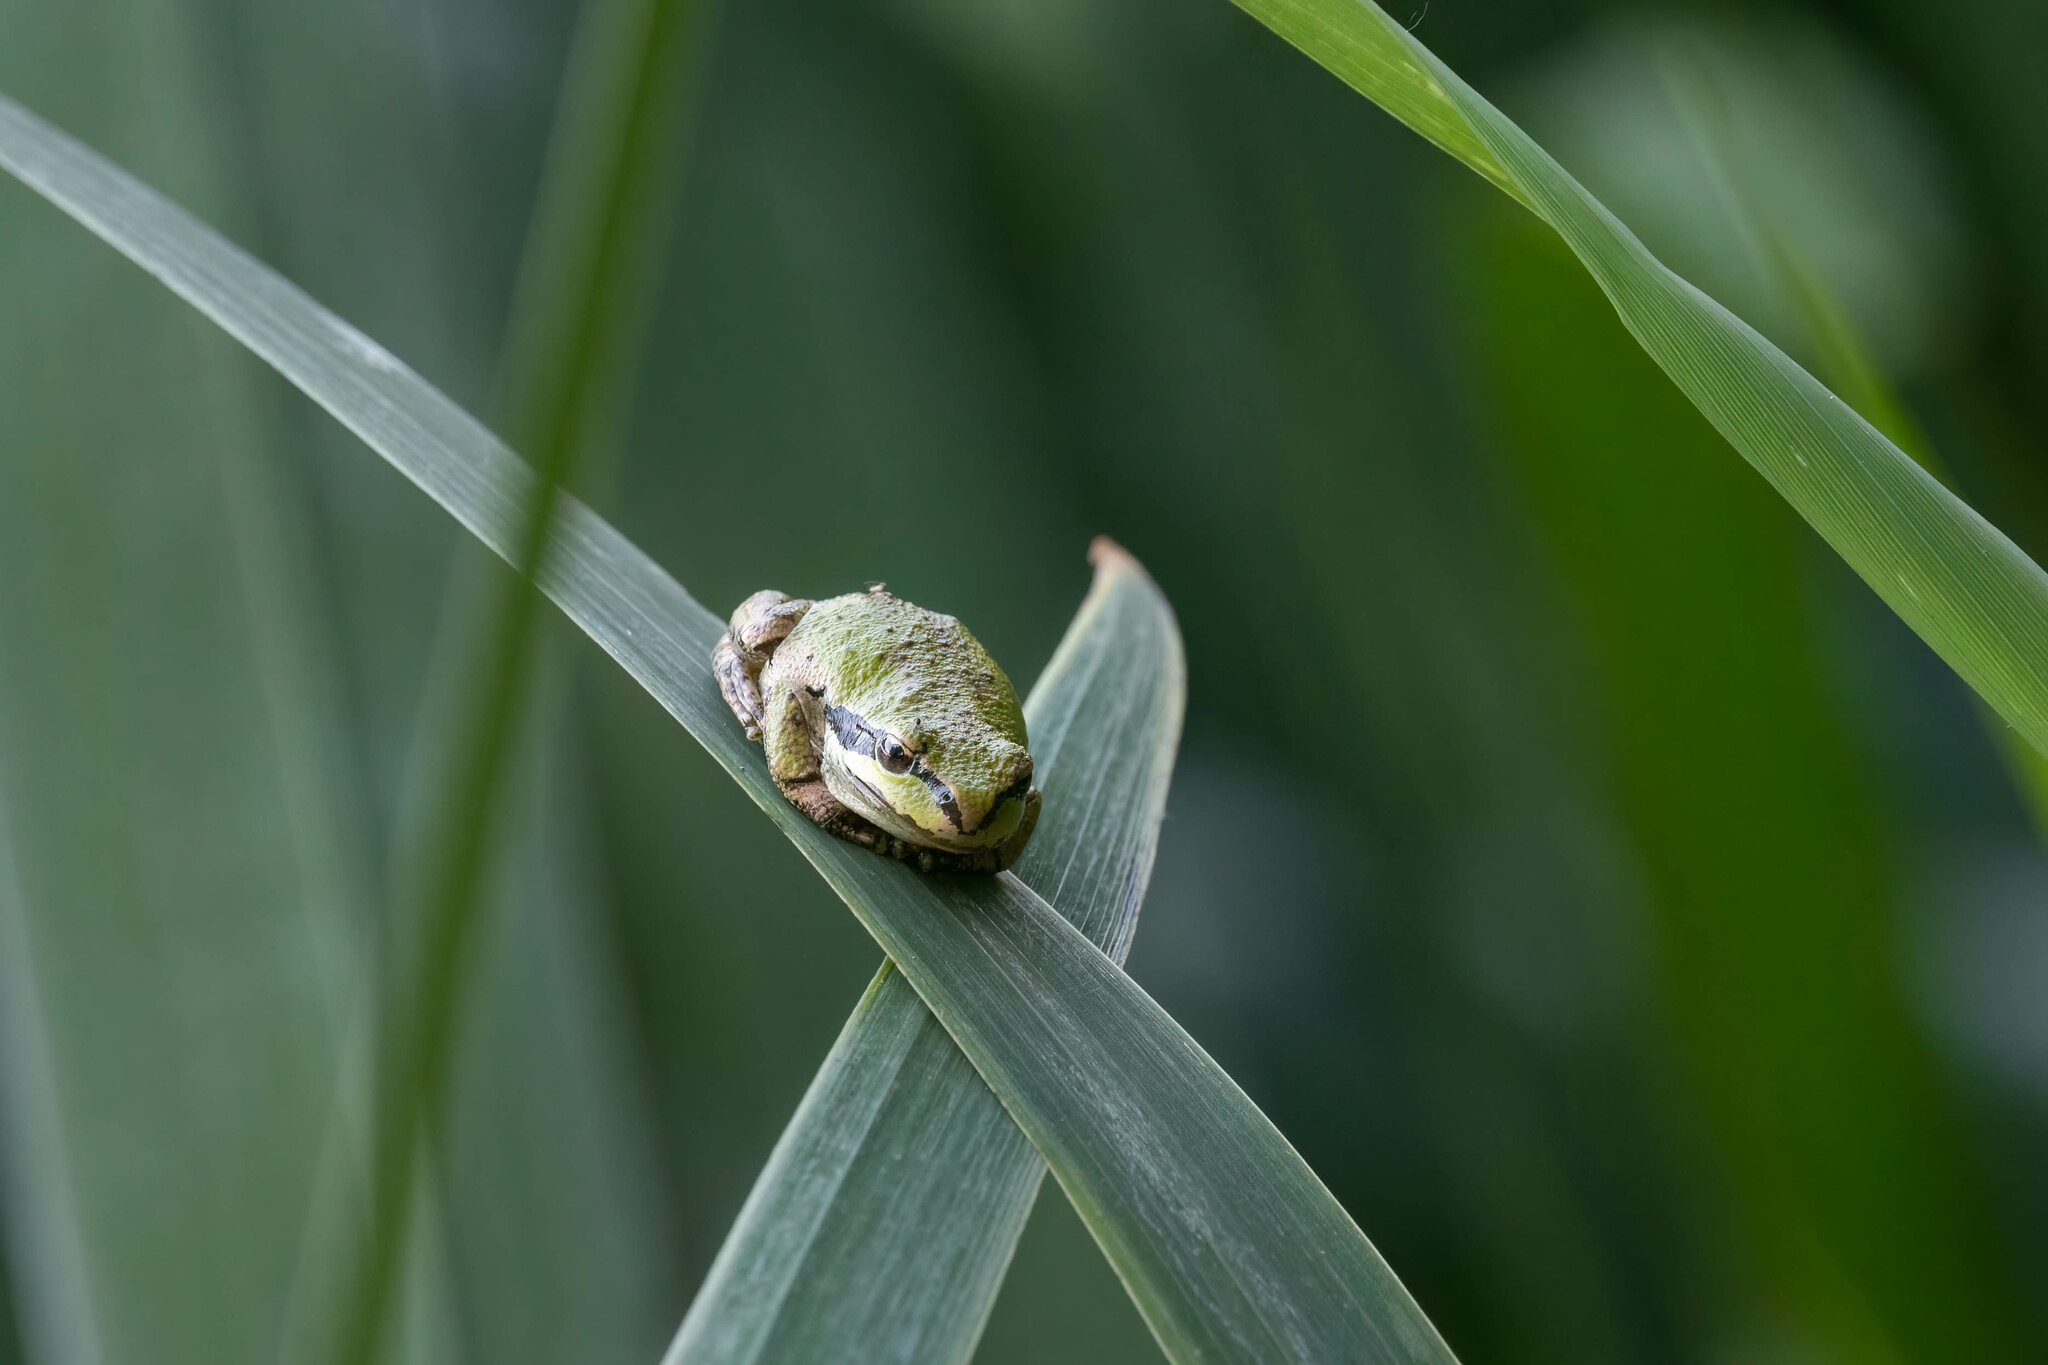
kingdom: Animalia
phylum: Chordata
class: Amphibia
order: Anura
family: Hylidae
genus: Pseudacris
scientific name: Pseudacris regilla
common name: Pacific chorus frog
